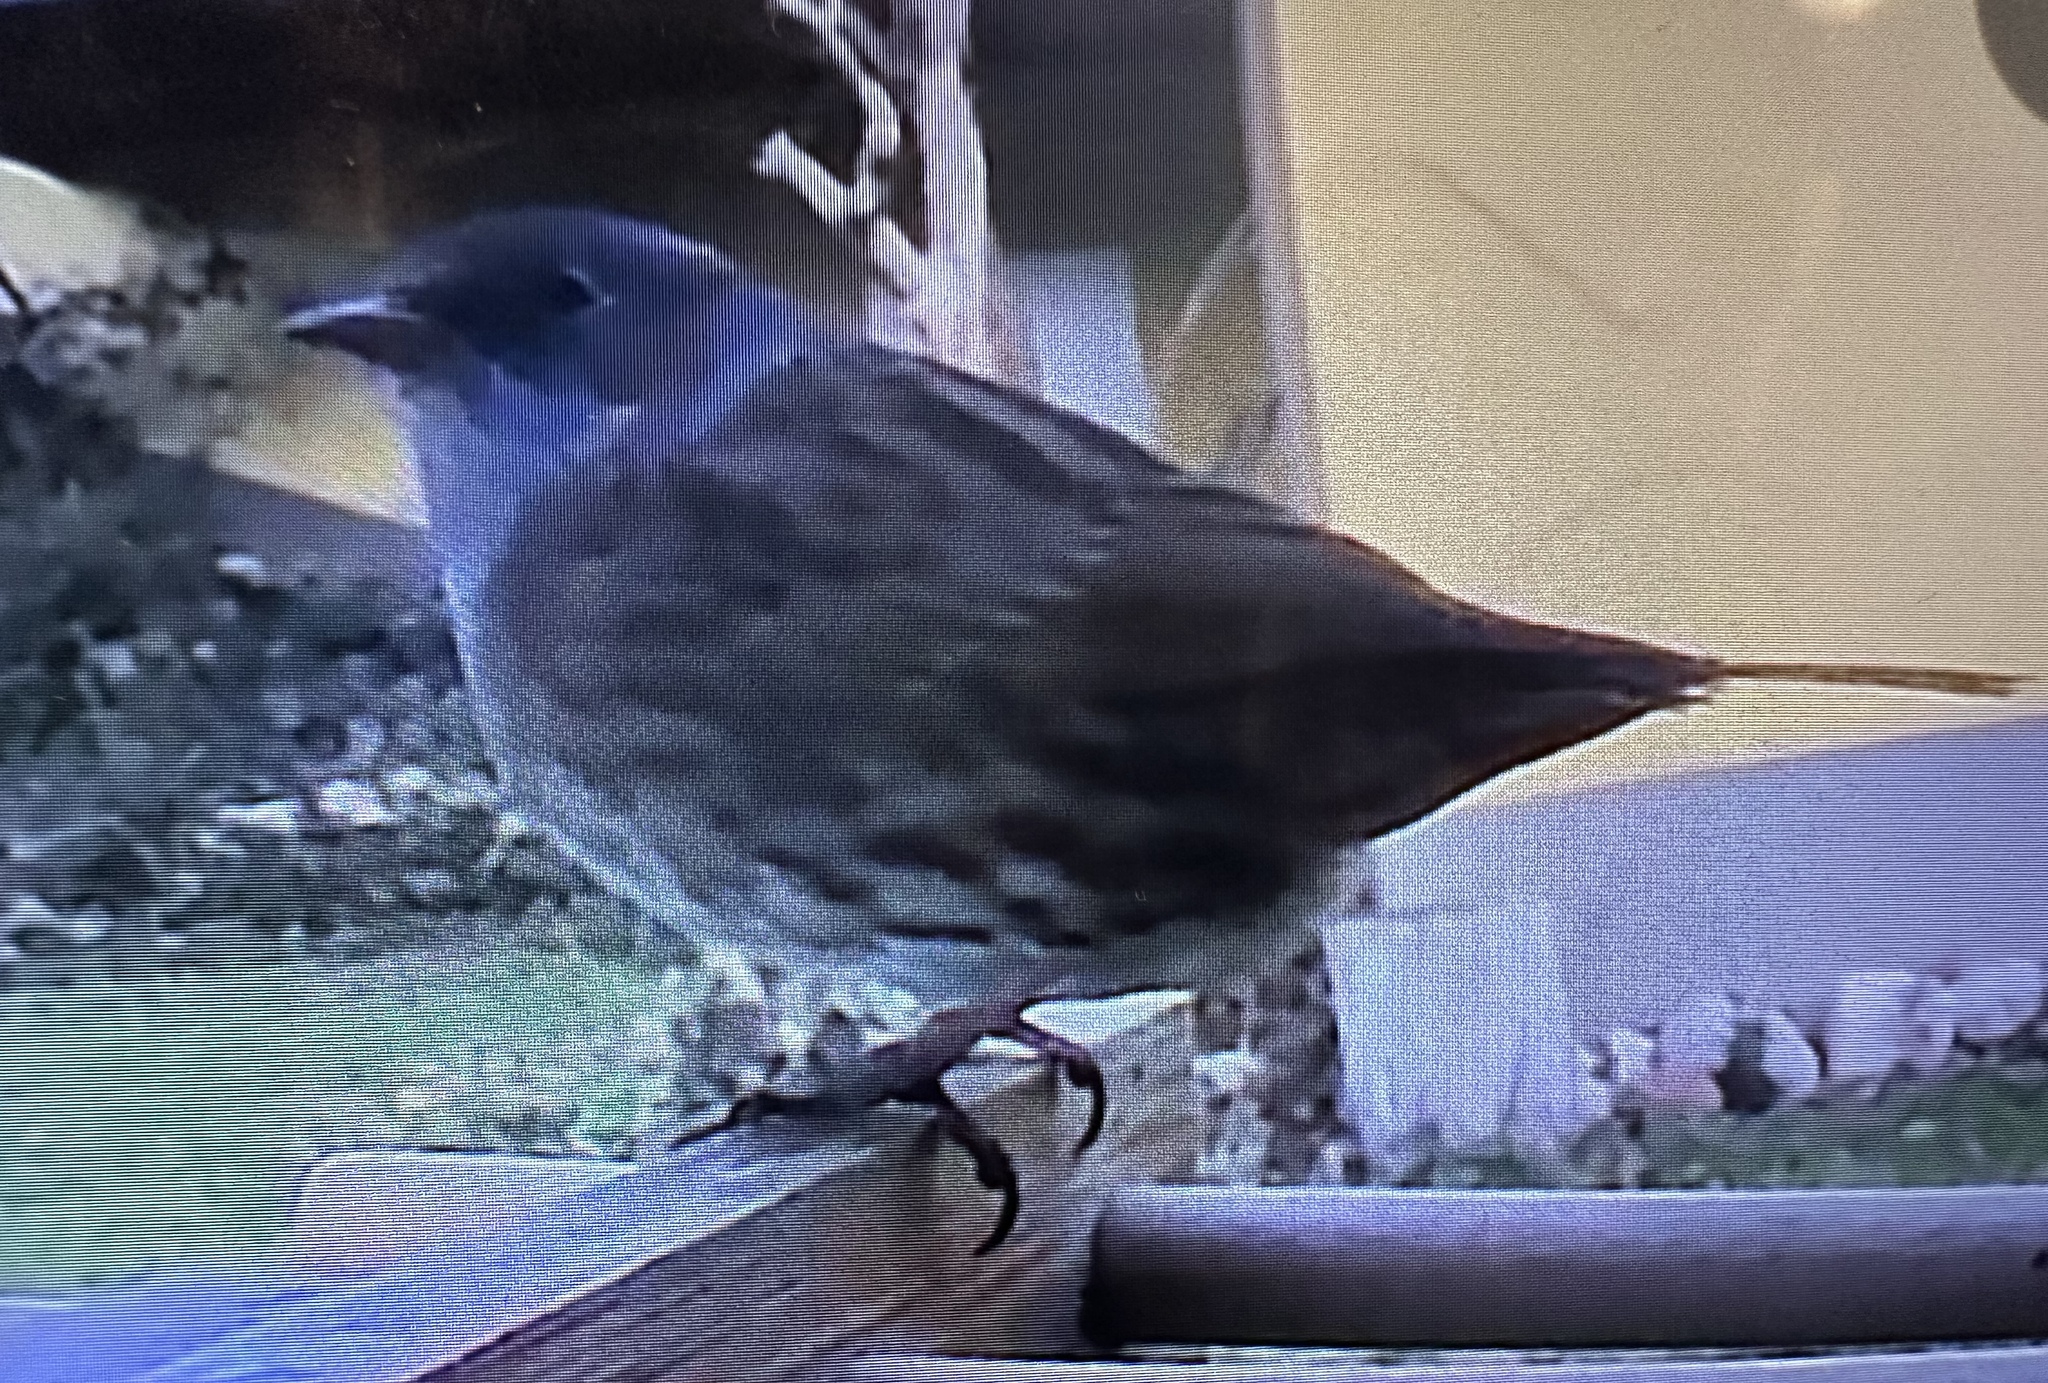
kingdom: Animalia
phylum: Chordata
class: Aves
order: Passeriformes
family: Prunellidae
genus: Prunella
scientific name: Prunella modularis
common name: Dunnock
